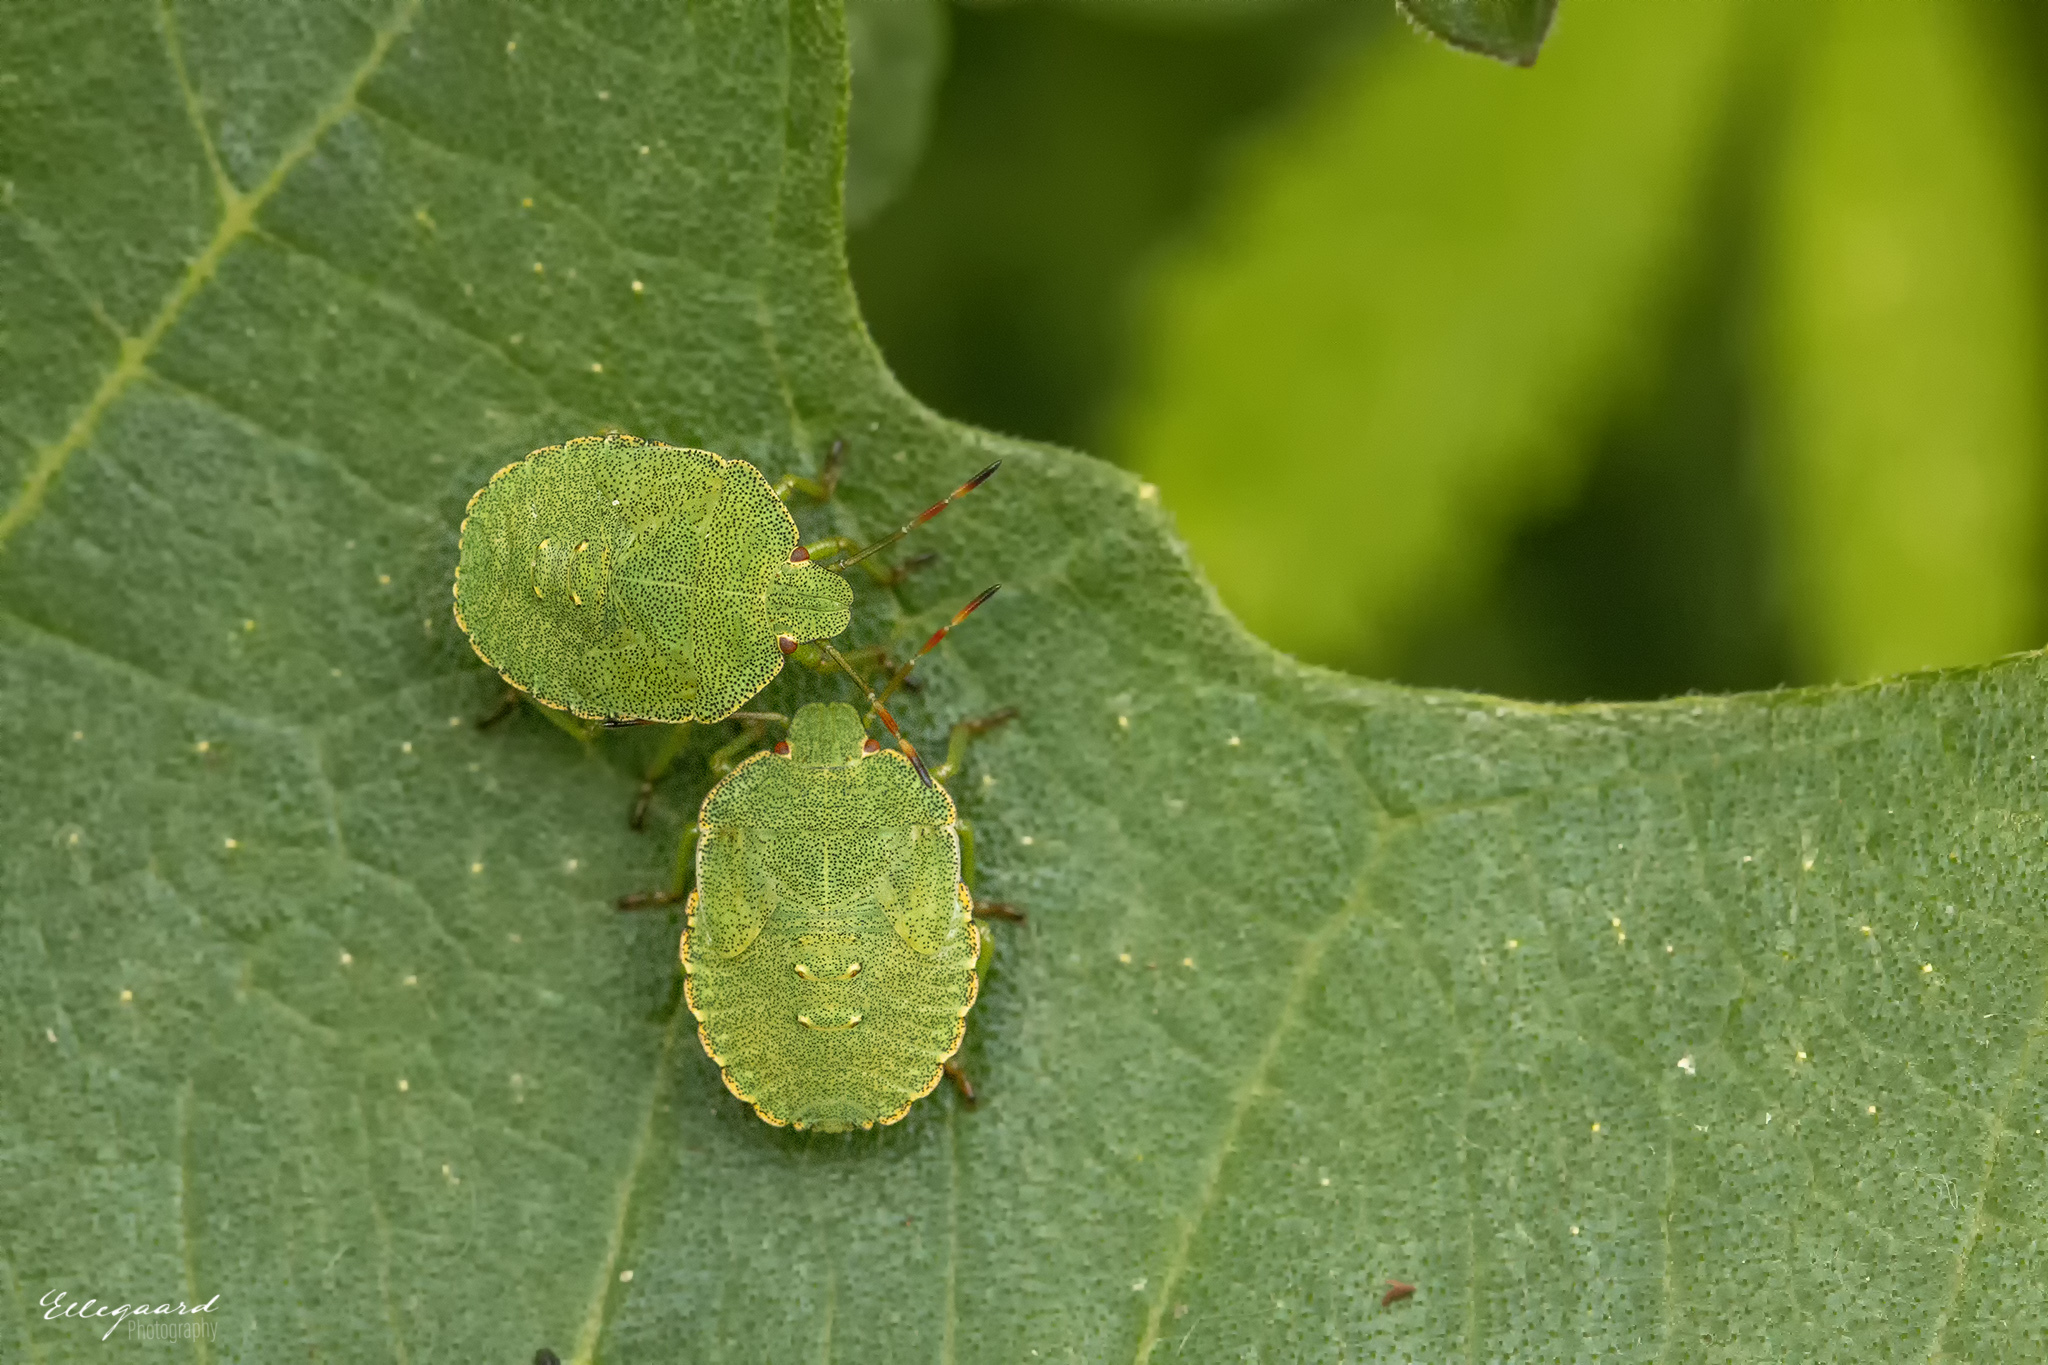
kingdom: Animalia
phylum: Arthropoda
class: Insecta
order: Hemiptera
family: Pentatomidae
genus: Palomena
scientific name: Palomena prasina
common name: Green shieldbug
